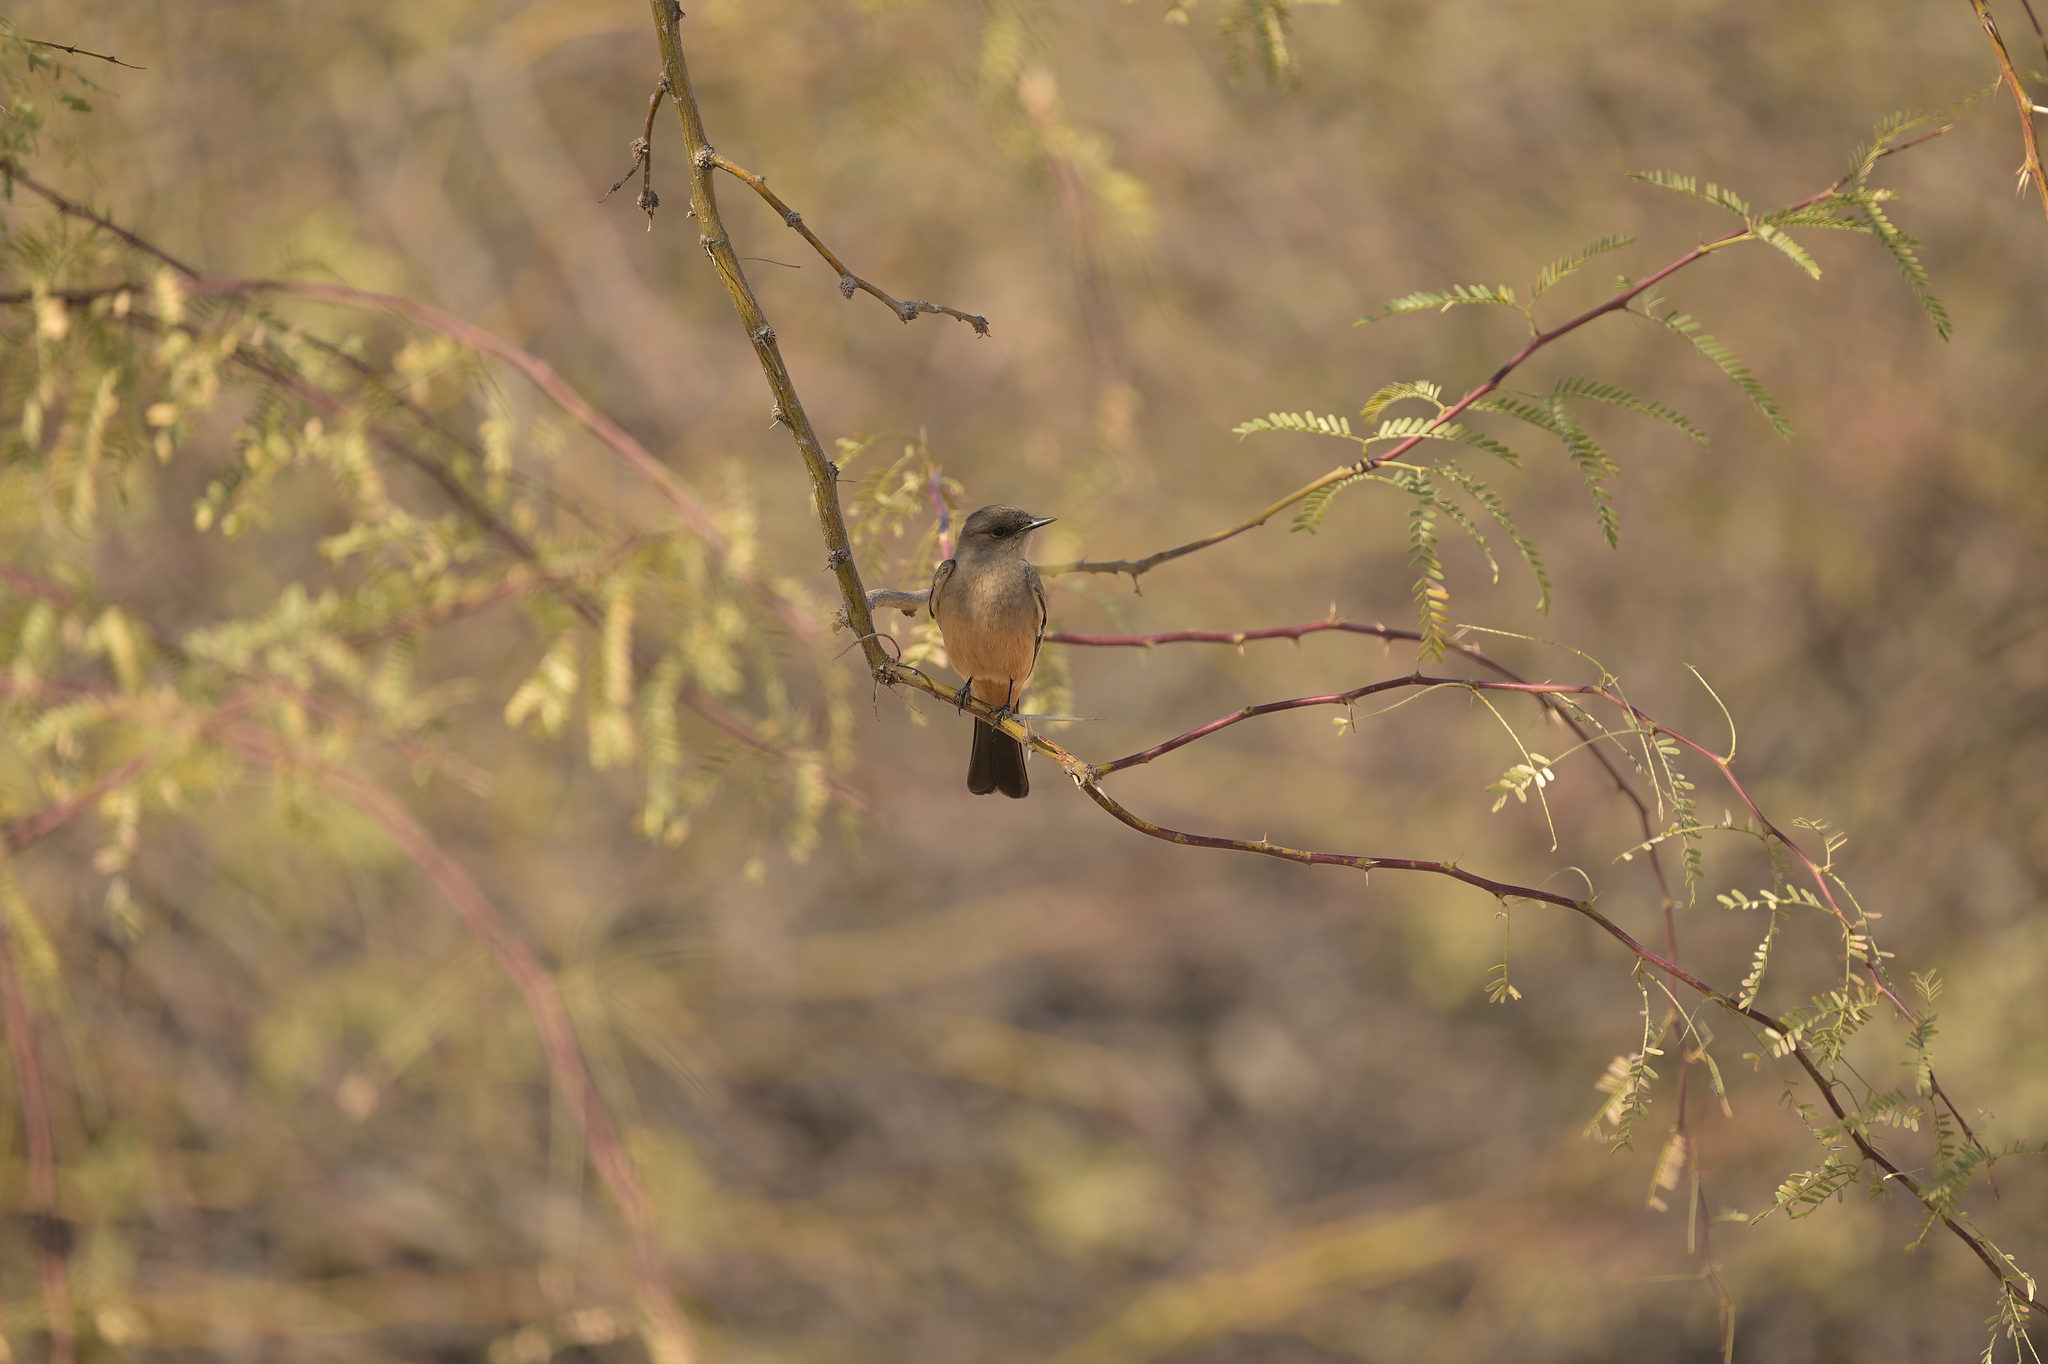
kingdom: Animalia
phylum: Chordata
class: Aves
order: Passeriformes
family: Tyrannidae
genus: Sayornis
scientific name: Sayornis saya
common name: Say's phoebe
